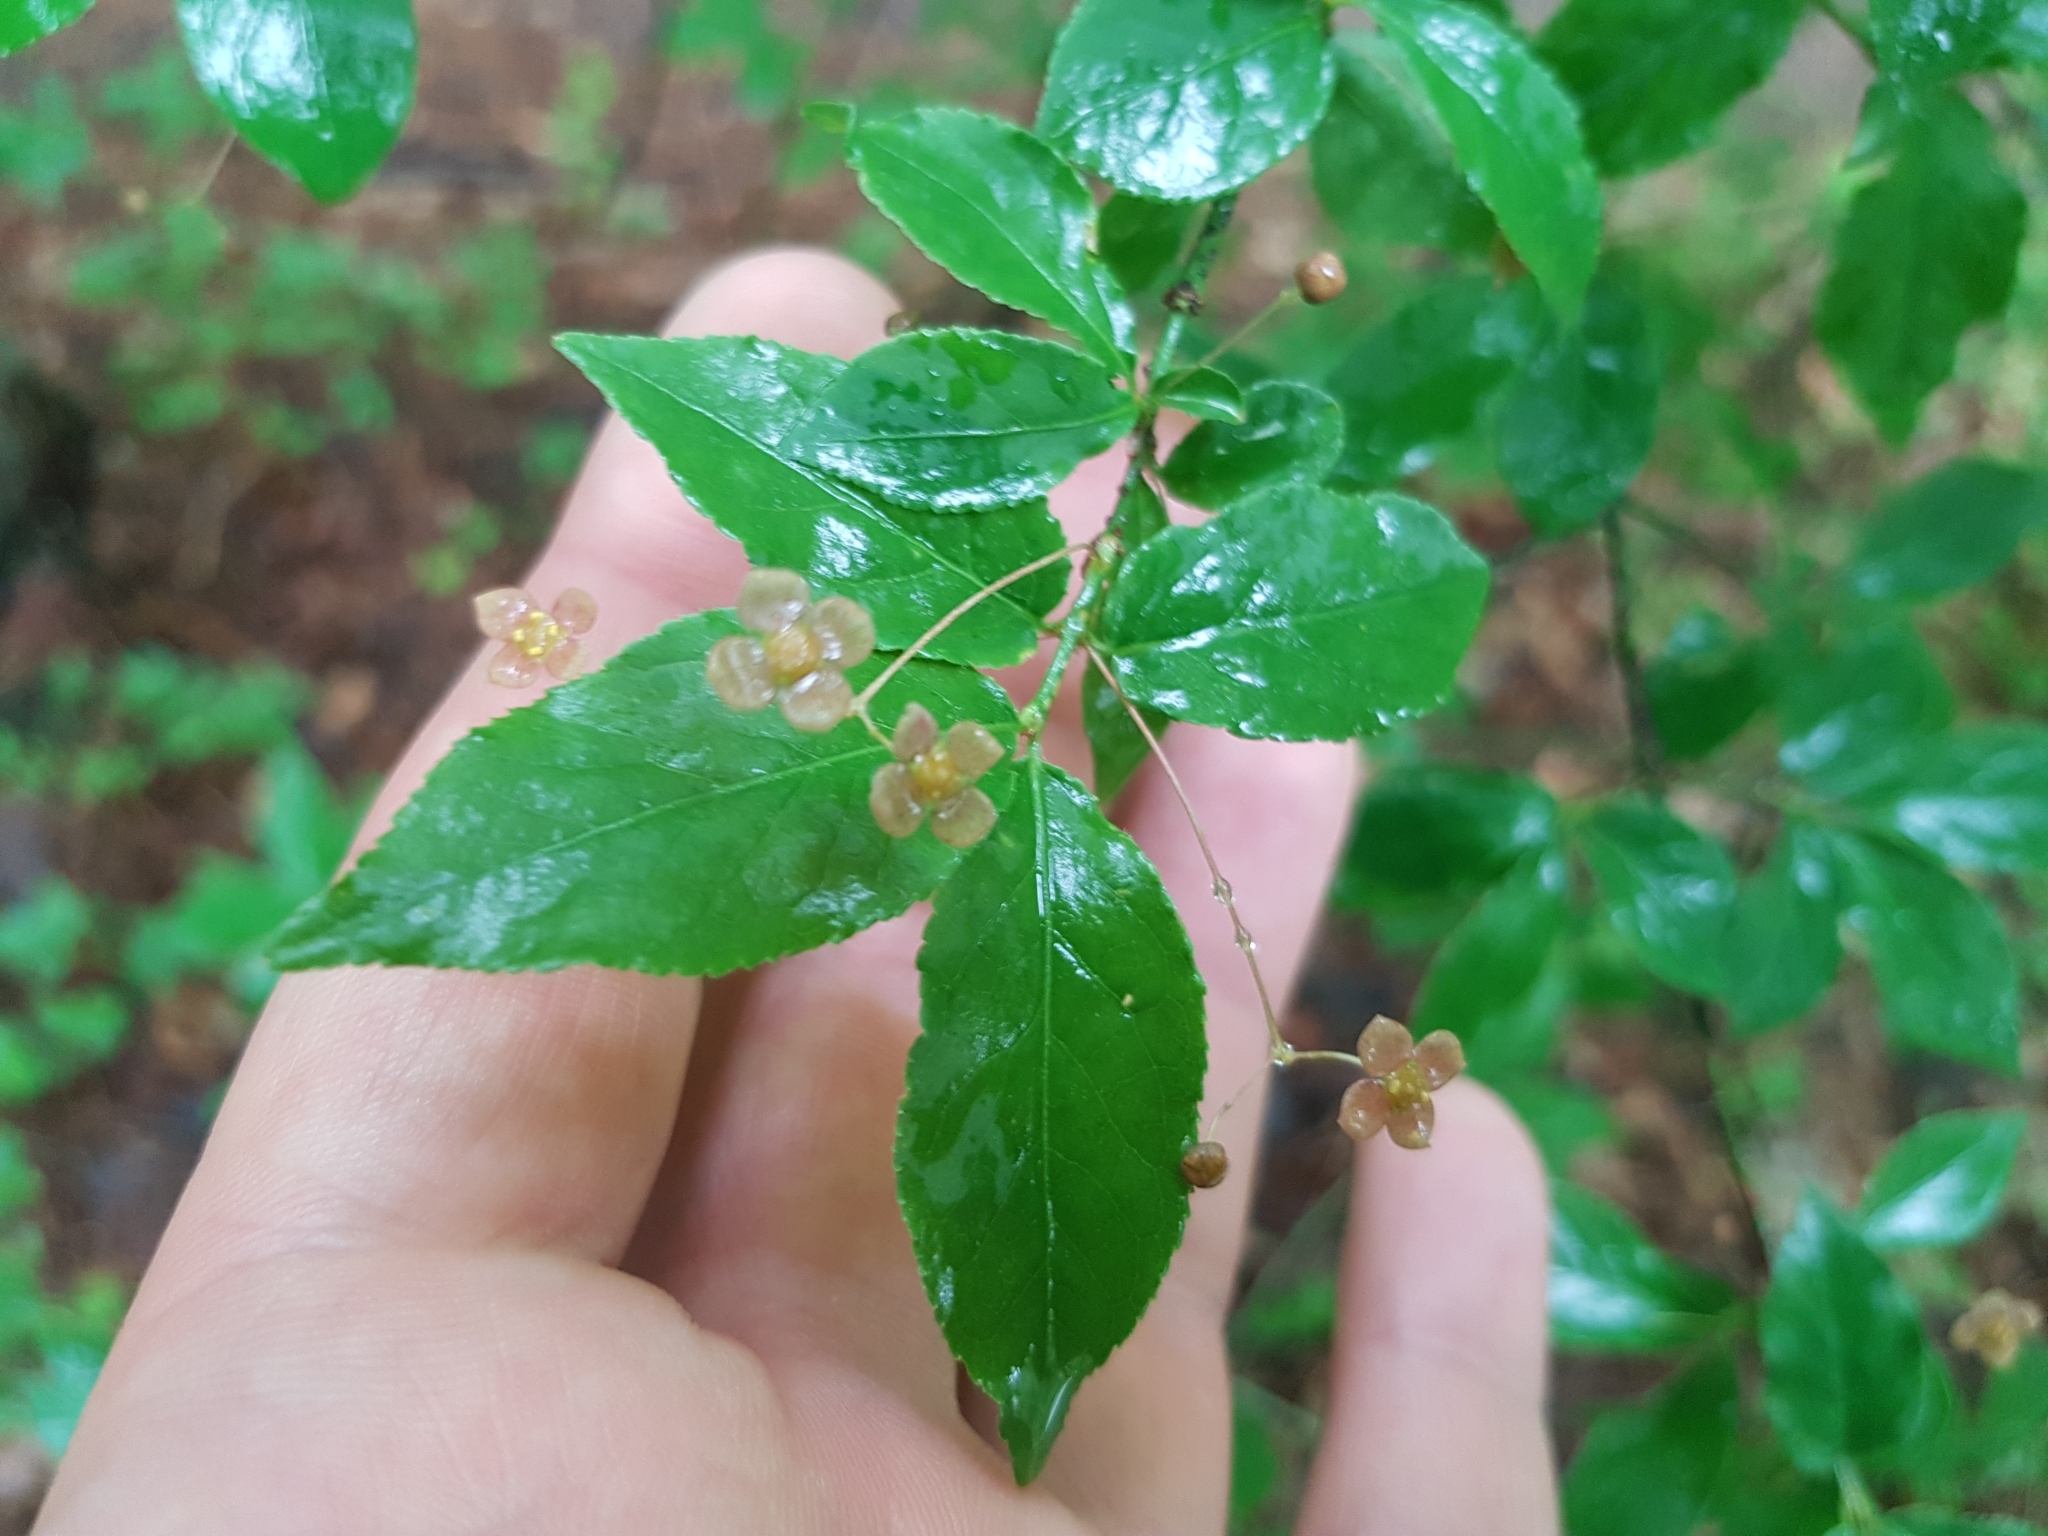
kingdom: Plantae
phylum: Tracheophyta
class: Magnoliopsida
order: Celastrales
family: Celastraceae
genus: Euonymus
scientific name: Euonymus verrucosus
